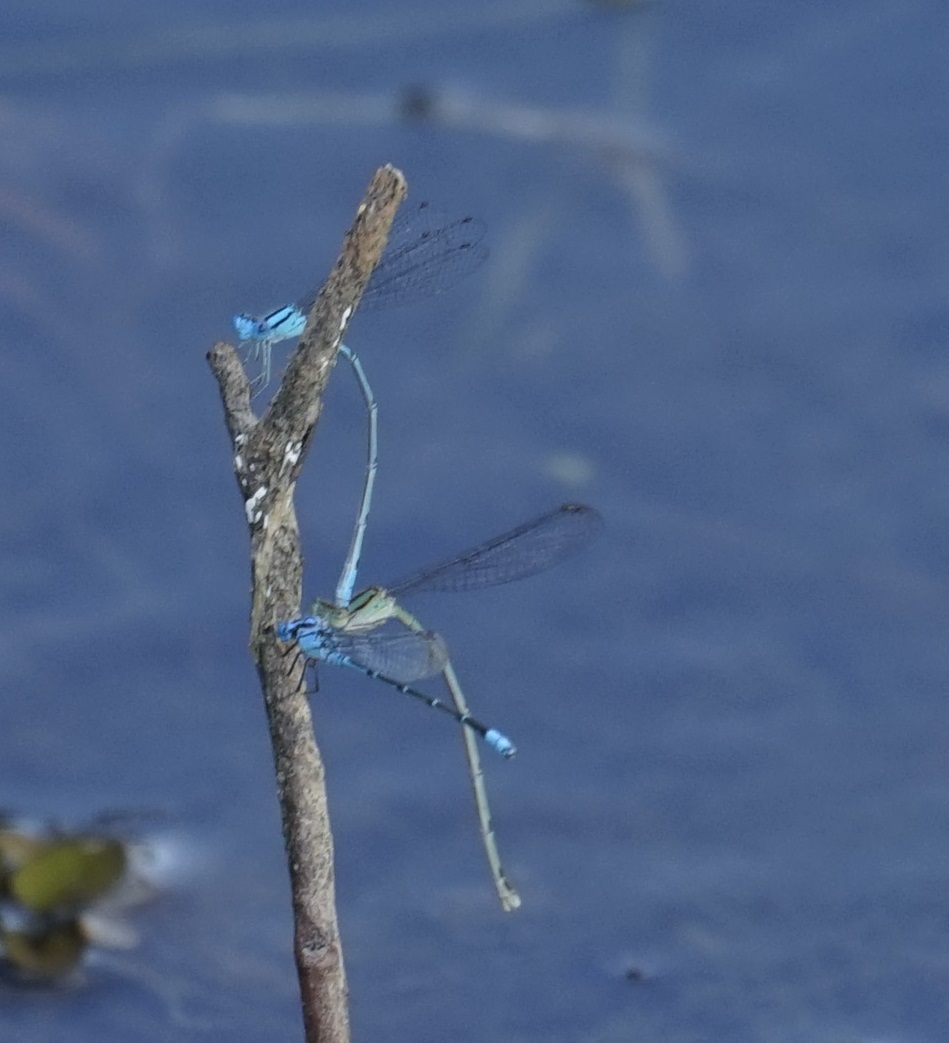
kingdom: Animalia
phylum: Arthropoda
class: Insecta
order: Odonata
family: Coenagrionidae
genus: Pseudagrion
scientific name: Pseudagrion microcephalum
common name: Blue riverdamsel
